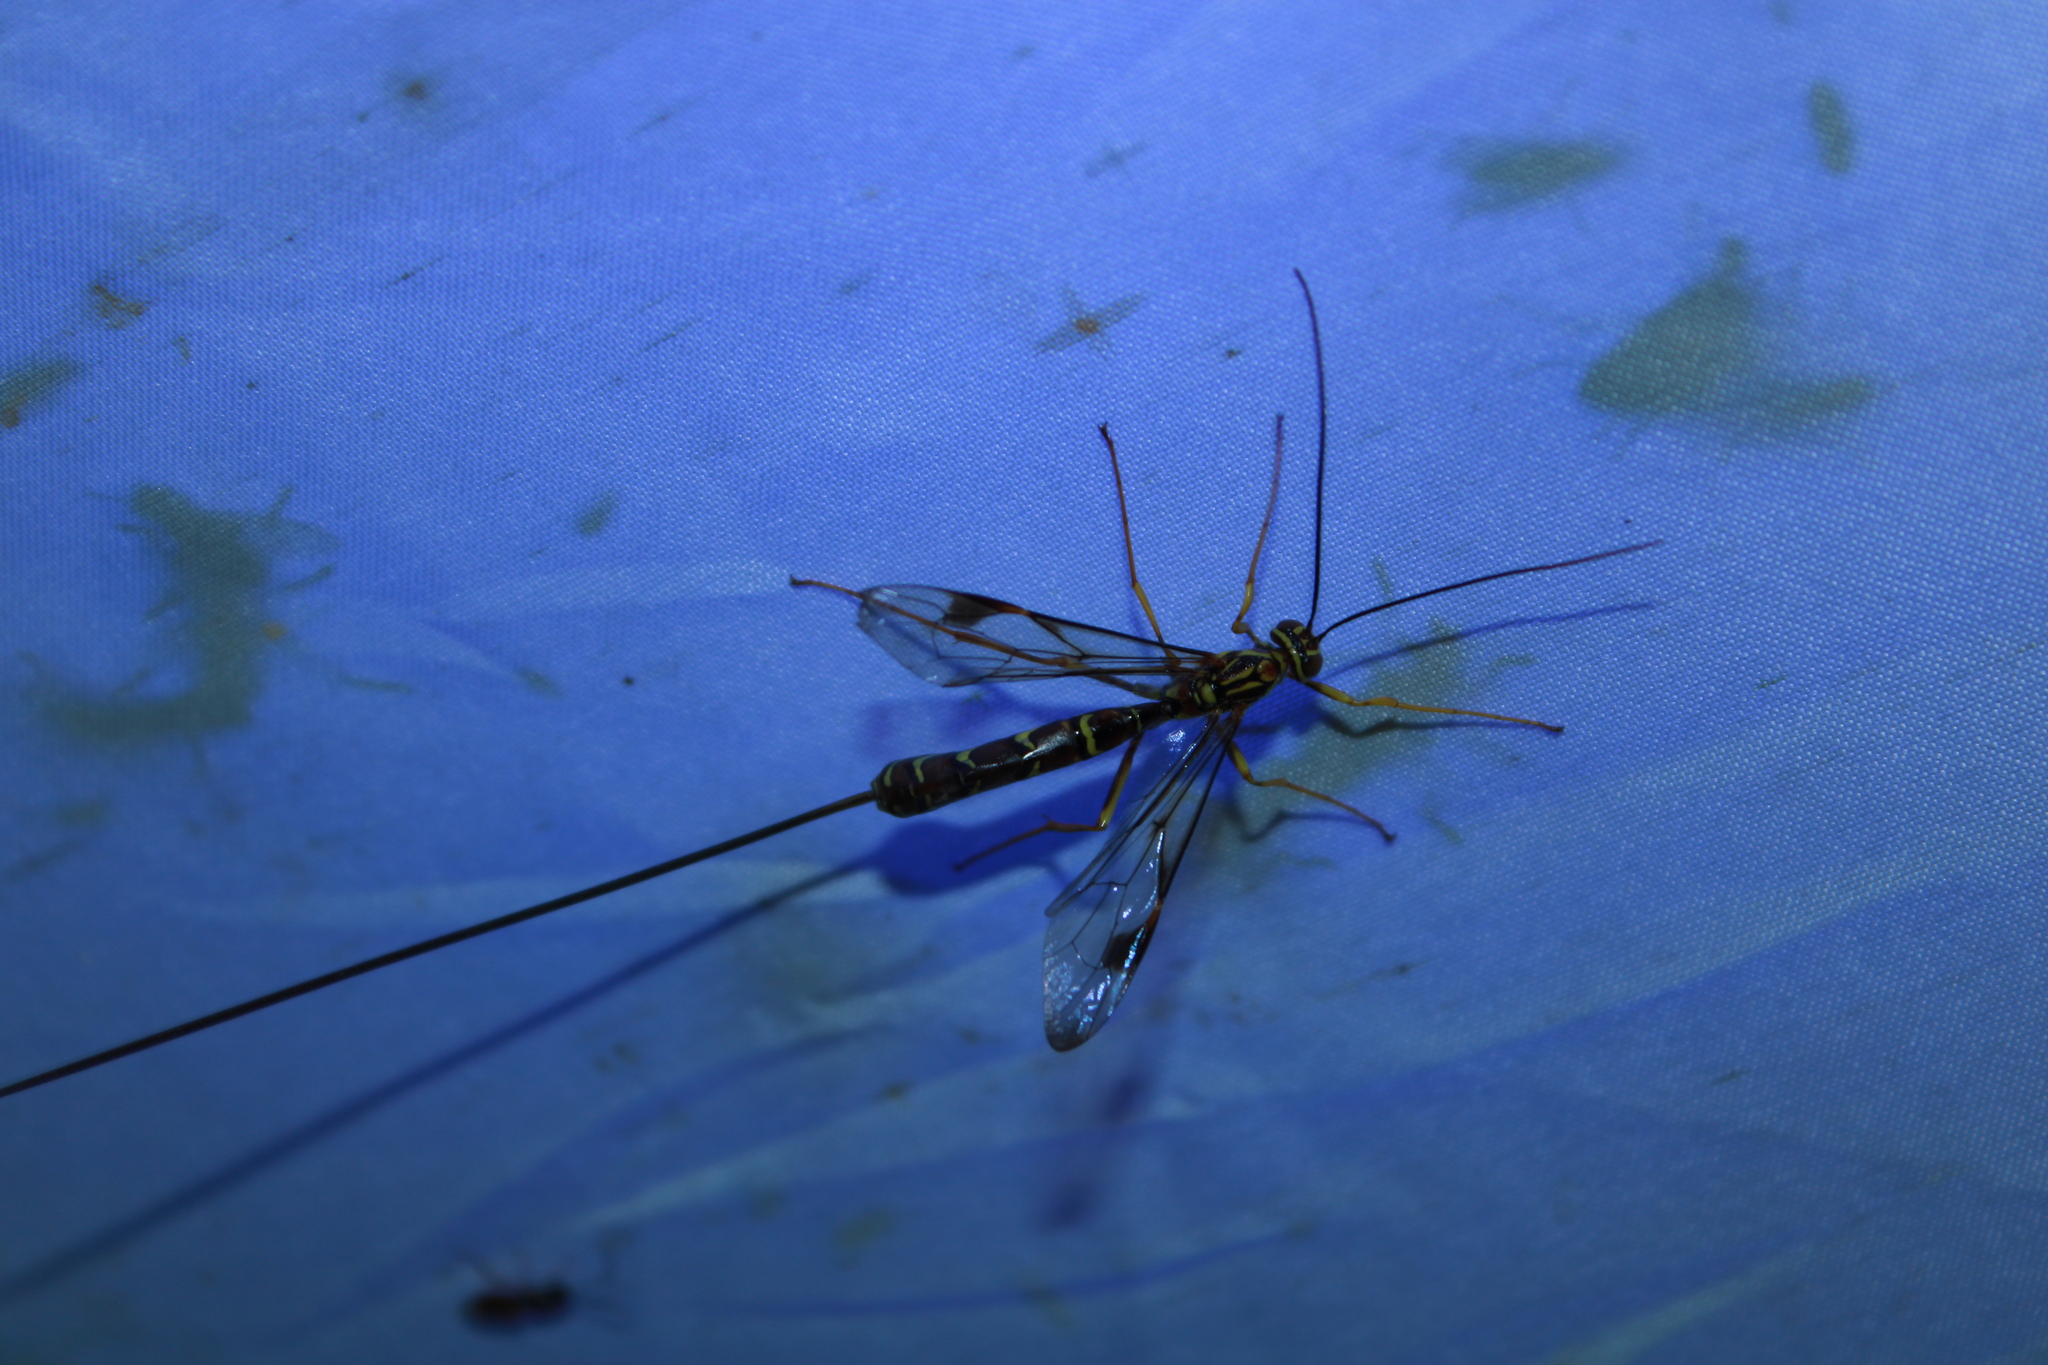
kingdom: Animalia
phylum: Arthropoda
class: Insecta
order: Hymenoptera
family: Ichneumonidae
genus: Megarhyssa
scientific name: Megarhyssa macrura
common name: Long-tailed giant ichneumonid wasp
